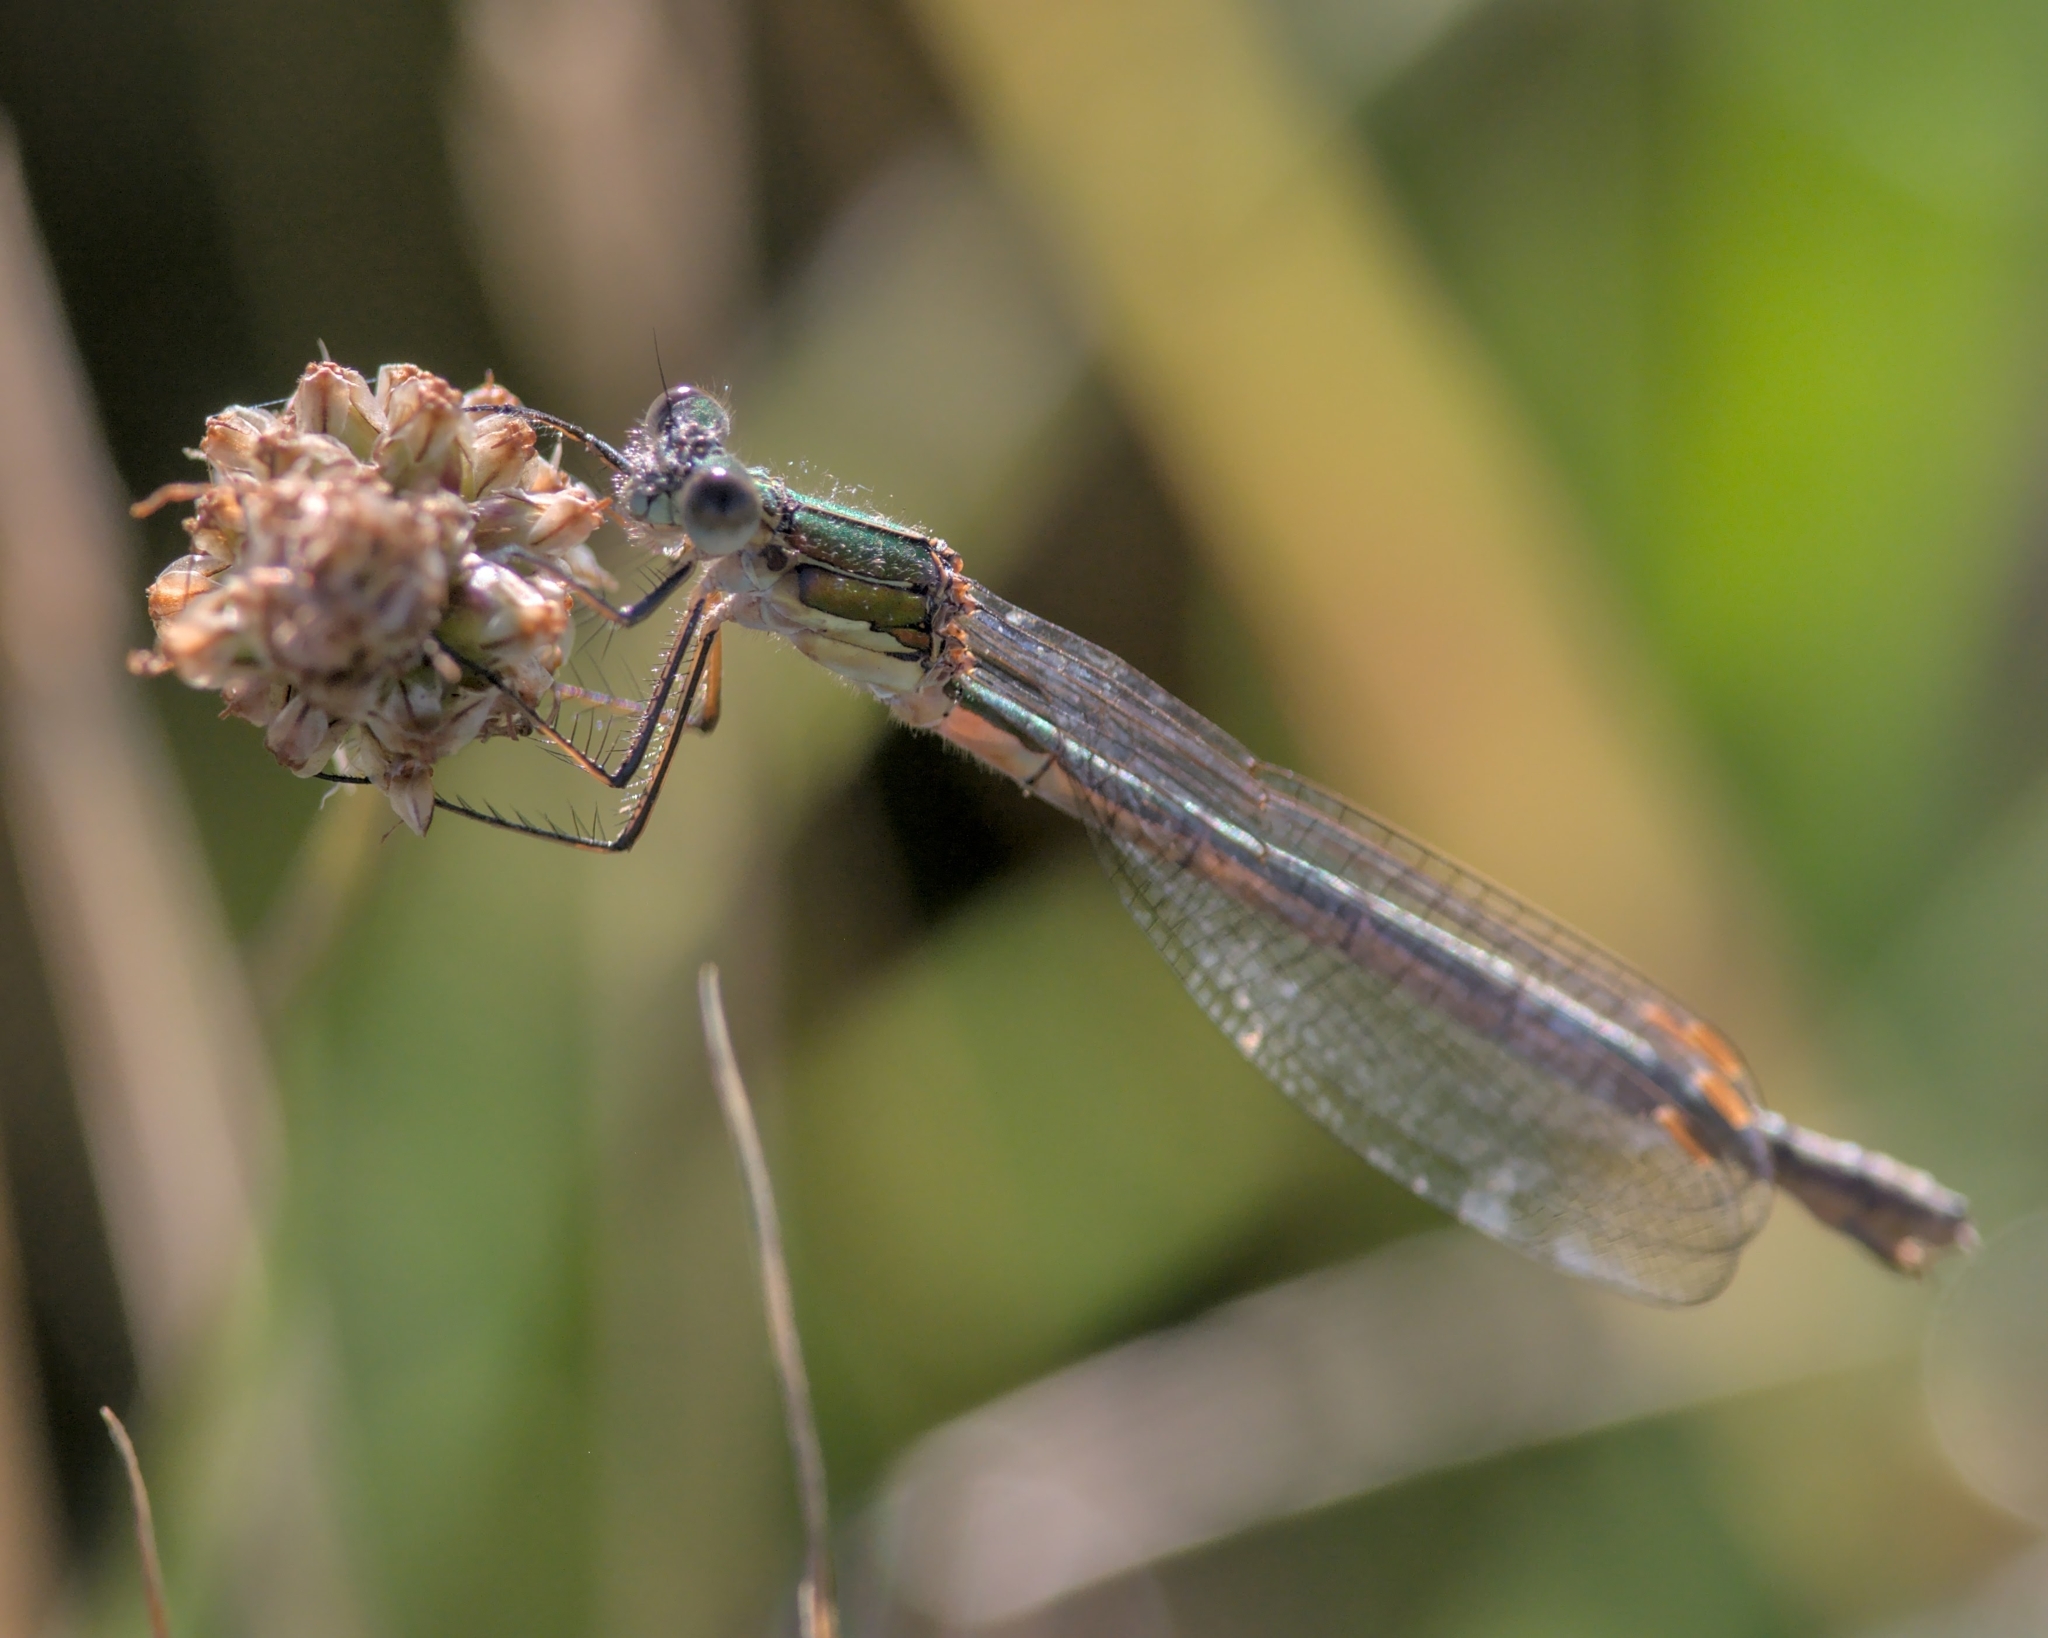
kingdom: Animalia
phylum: Arthropoda
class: Insecta
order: Odonata
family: Lestidae
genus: Lestes
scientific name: Lestes sponsa
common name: Common spreadwing
